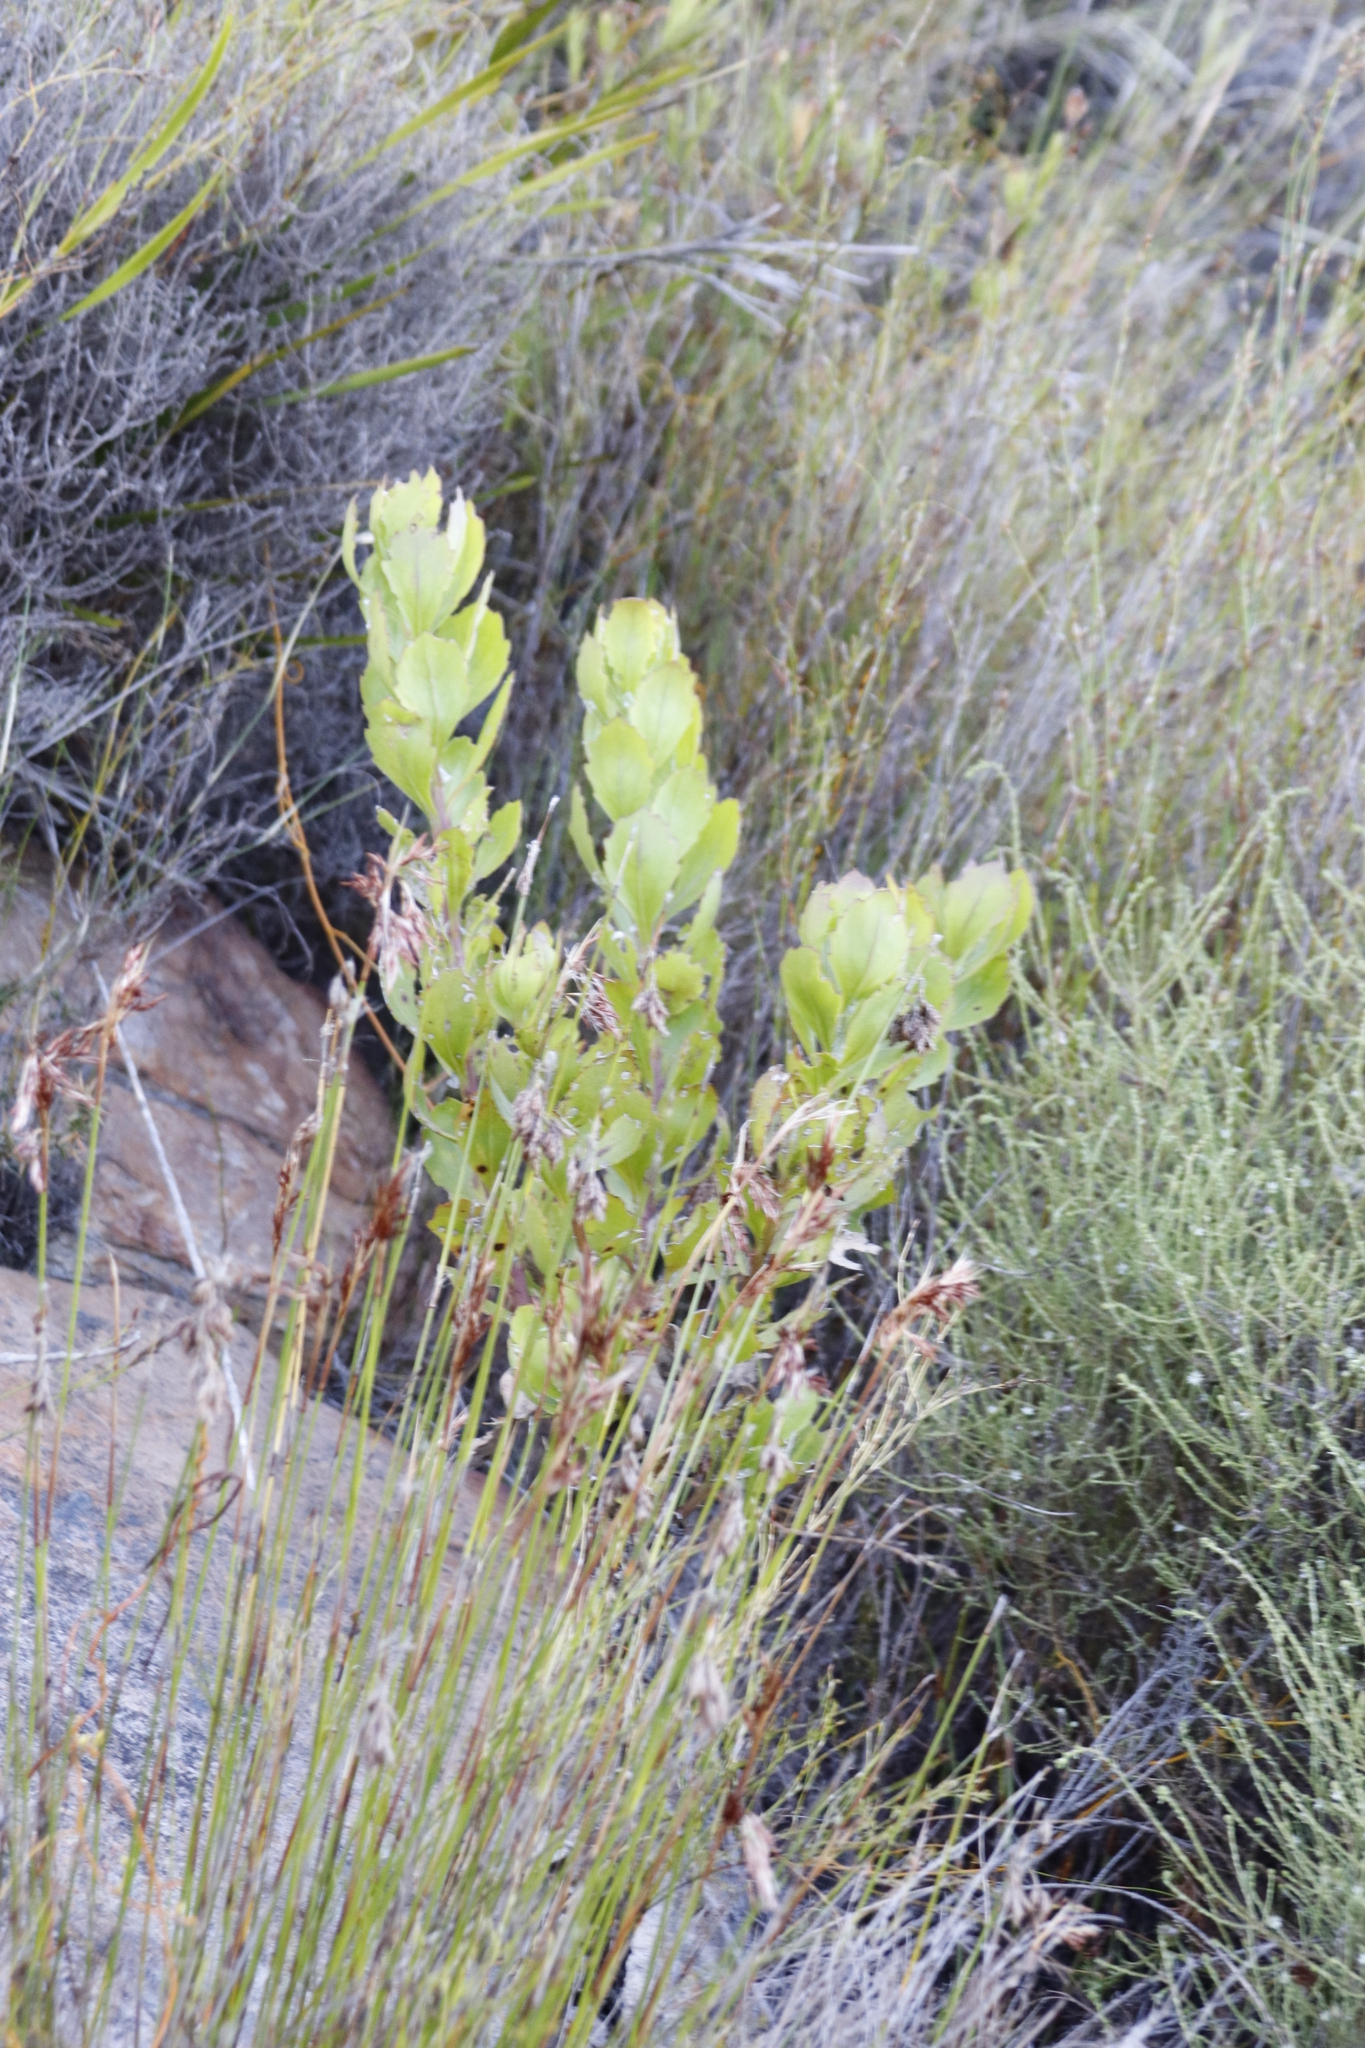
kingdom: Plantae
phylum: Tracheophyta
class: Magnoliopsida
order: Asterales
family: Asteraceae
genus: Osteospermum
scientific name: Osteospermum moniliferum
